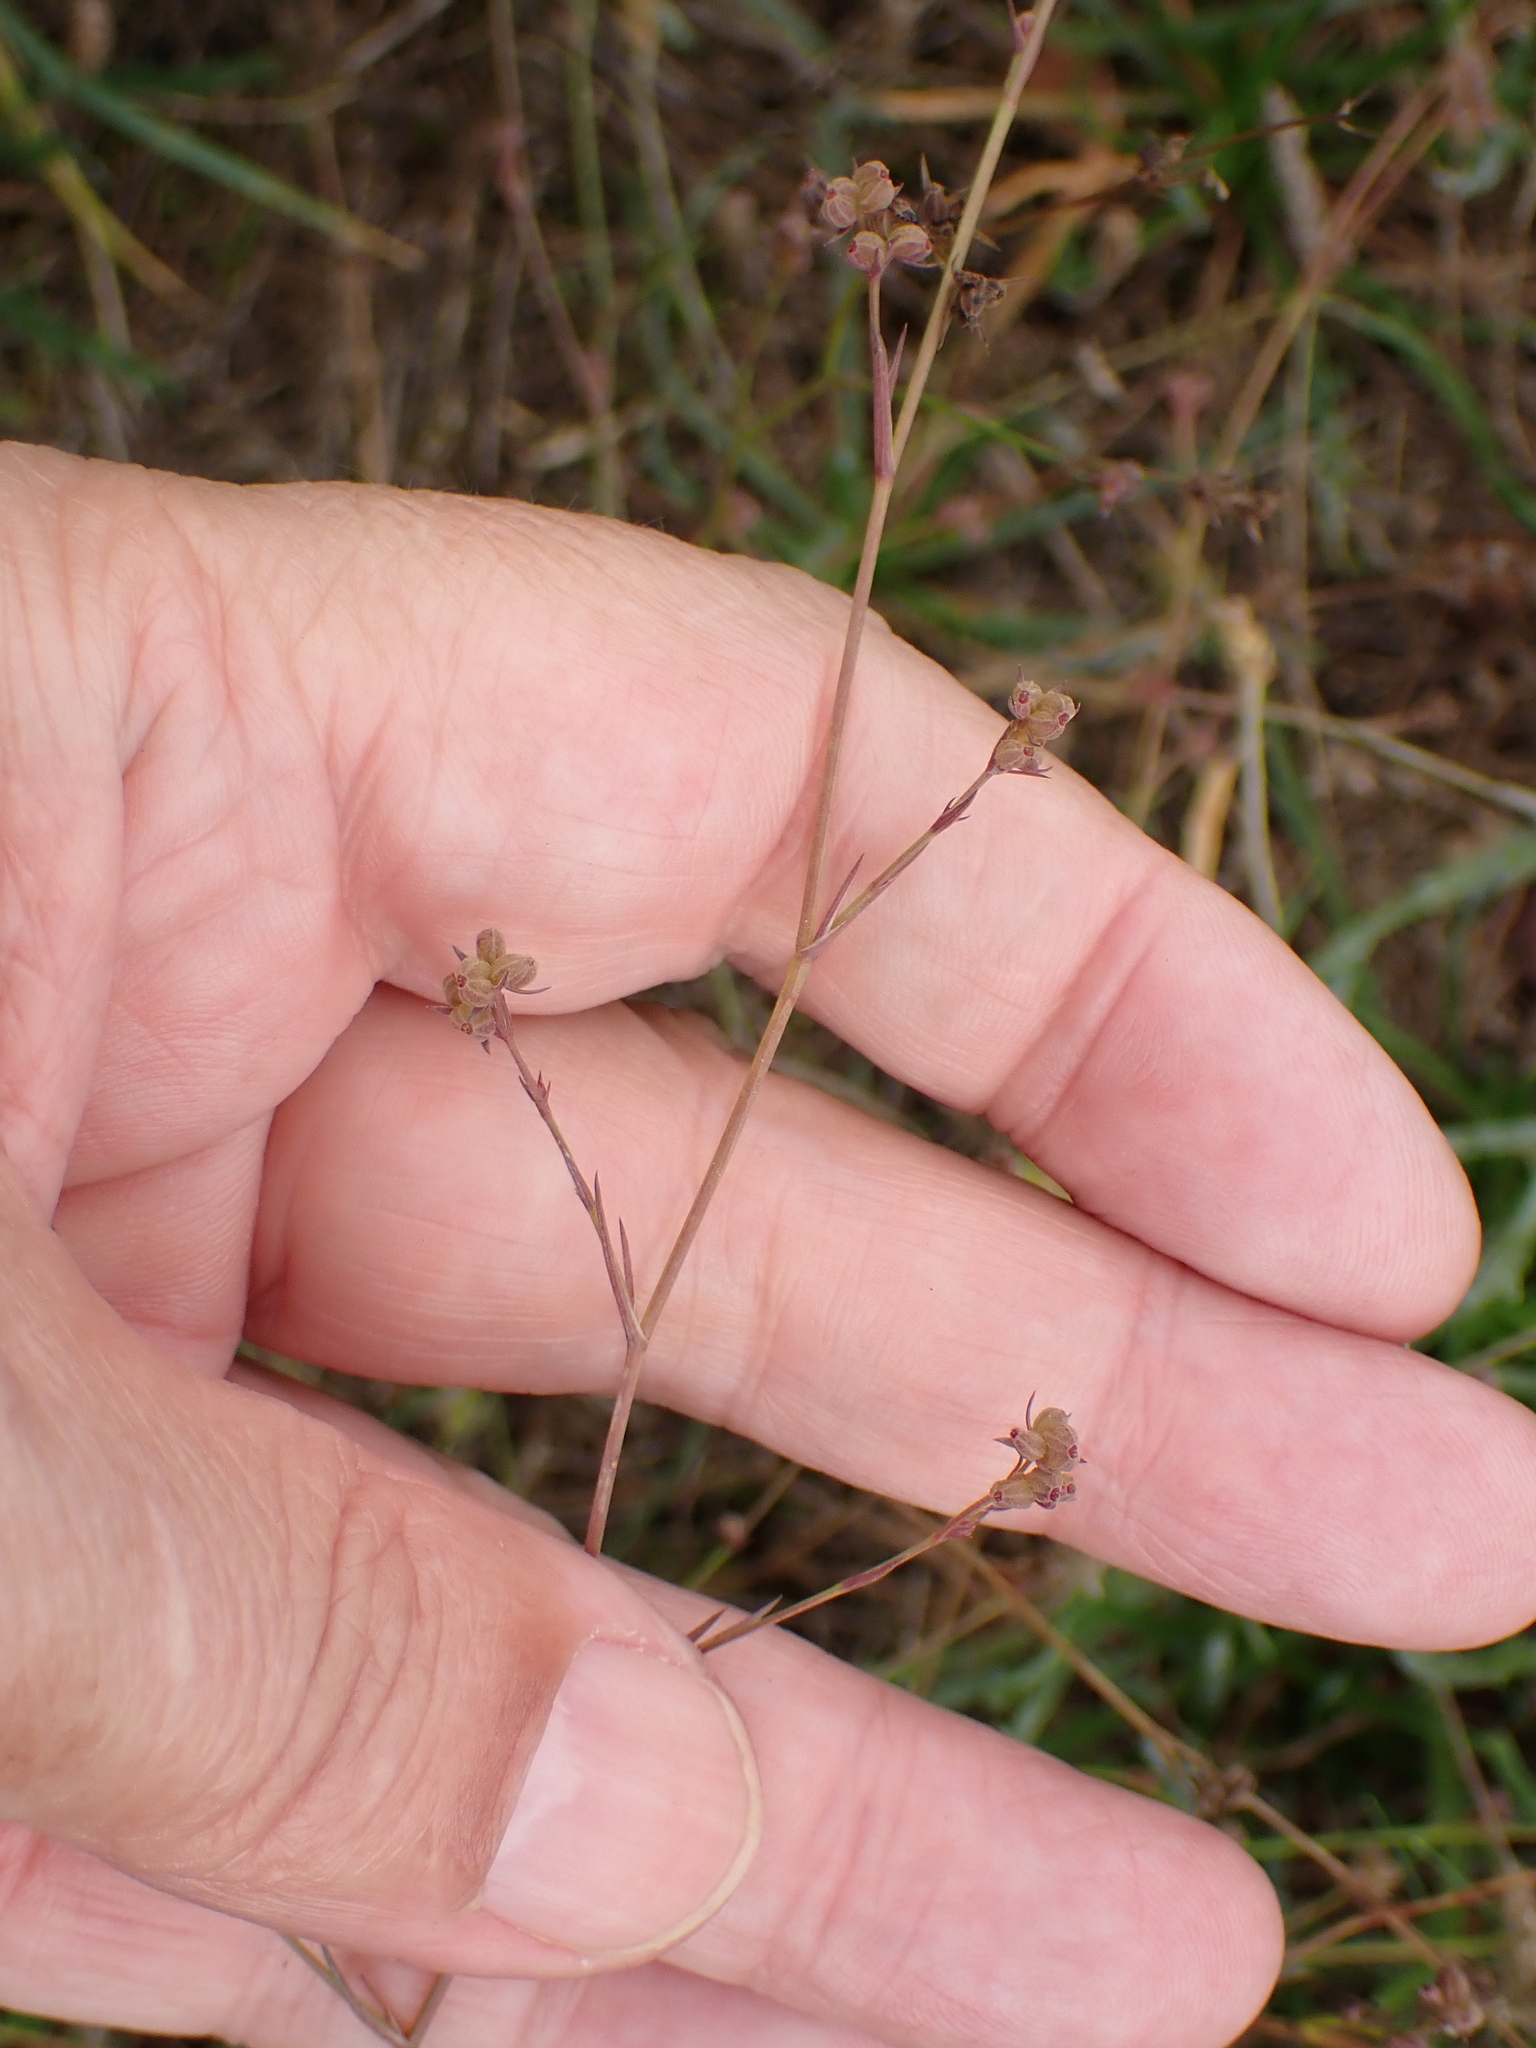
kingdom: Plantae
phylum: Tracheophyta
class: Magnoliopsida
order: Apiales
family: Apiaceae
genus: Bupleurum
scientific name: Bupleurum tenuissimum
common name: Slender hare's-ear
